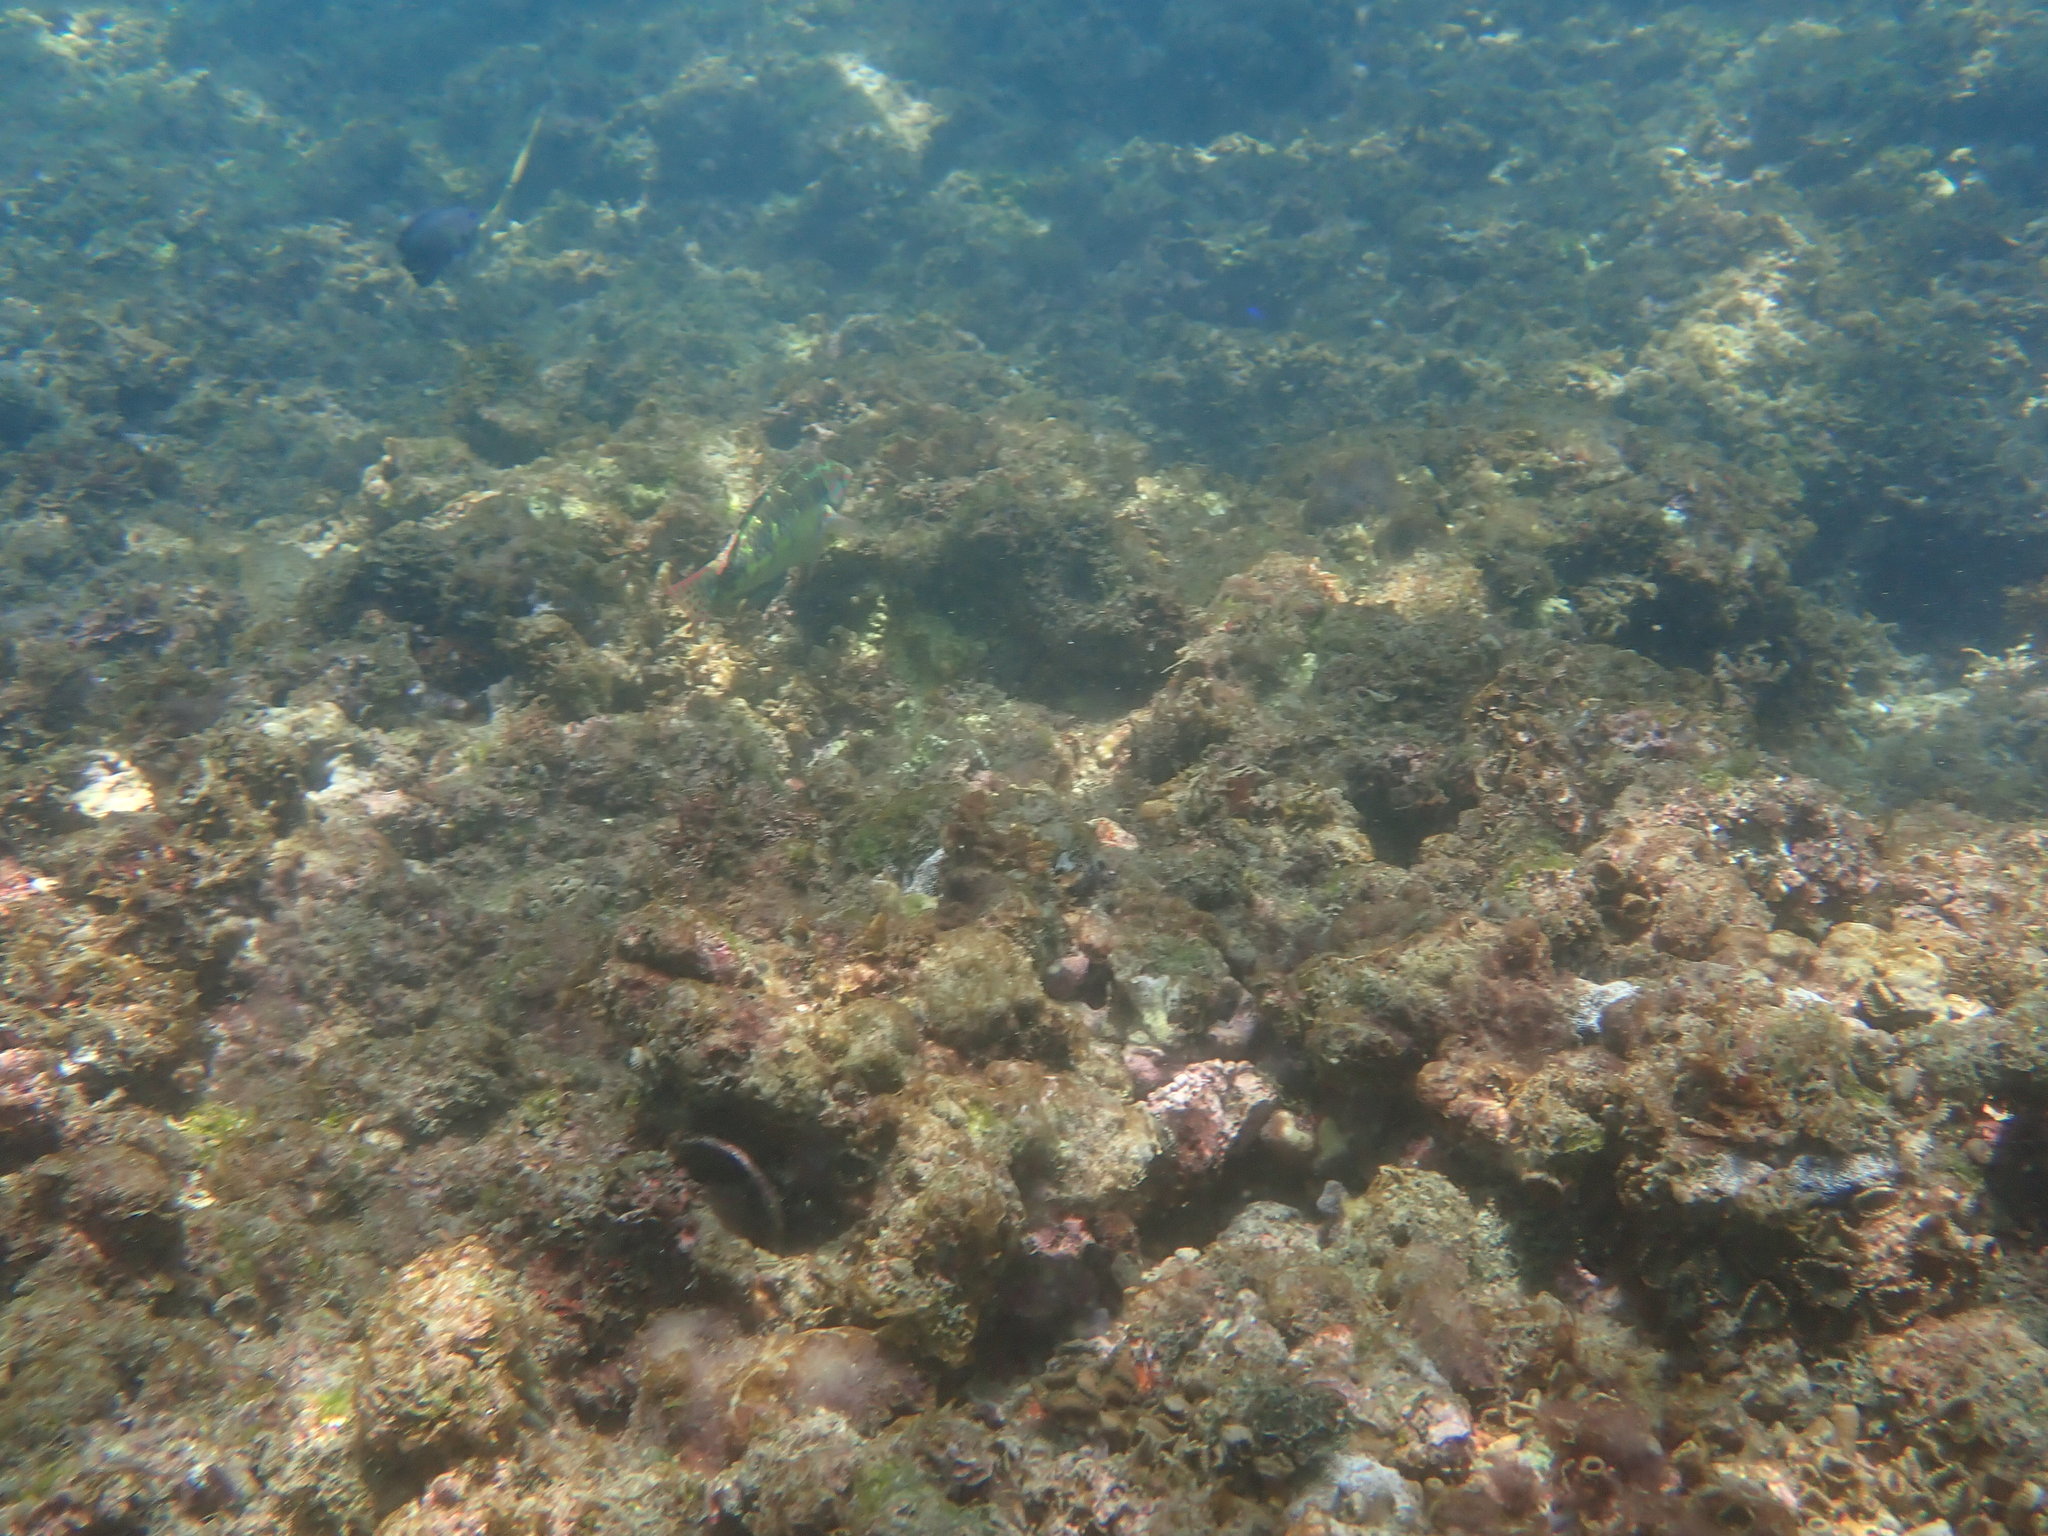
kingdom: Animalia
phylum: Chordata
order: Perciformes
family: Labridae
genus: Halichoeres
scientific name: Halichoeres margaritaceus
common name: Pink-belly wrasse
